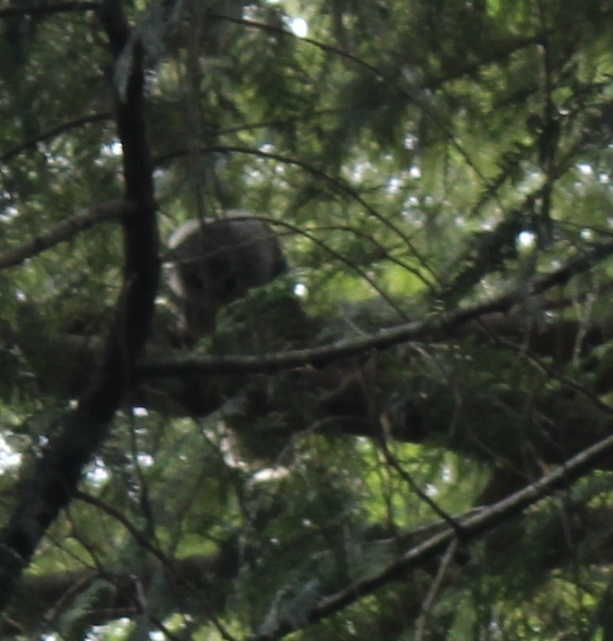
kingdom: Animalia
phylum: Chordata
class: Aves
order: Strigiformes
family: Strigidae
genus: Strix
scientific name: Strix varia
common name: Barred owl
